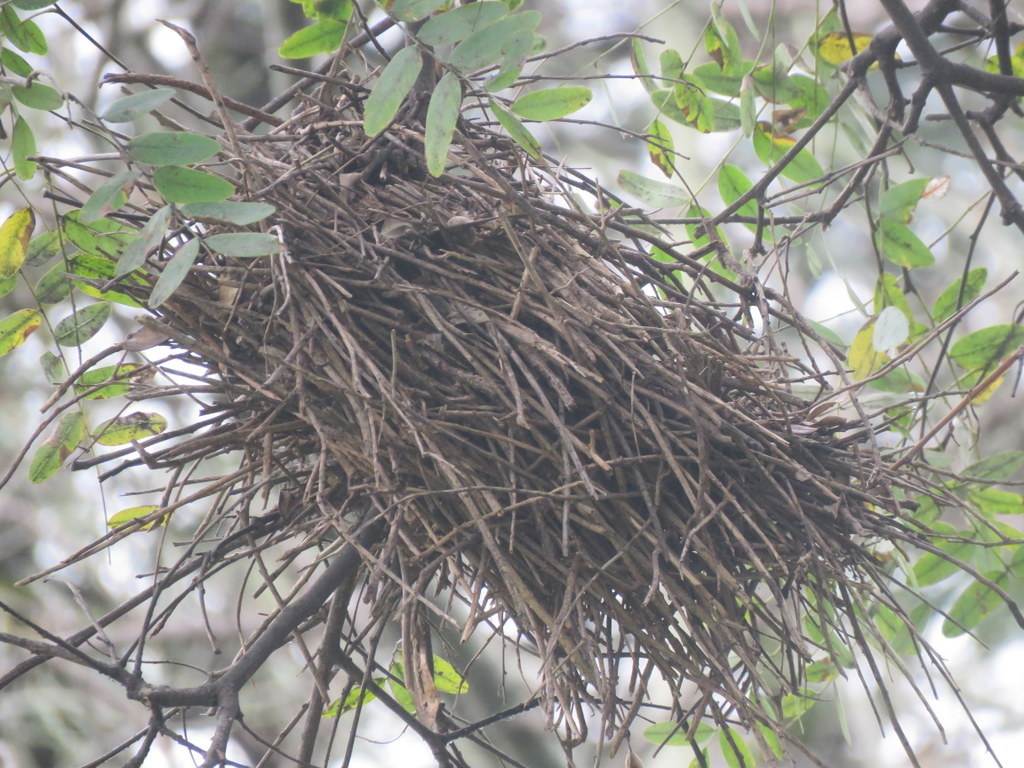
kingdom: Animalia
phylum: Chordata
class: Aves
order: Passeriformes
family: Furnariidae
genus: Phacellodomus
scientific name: Phacellodomus sibilatrix
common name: Little thornbird
